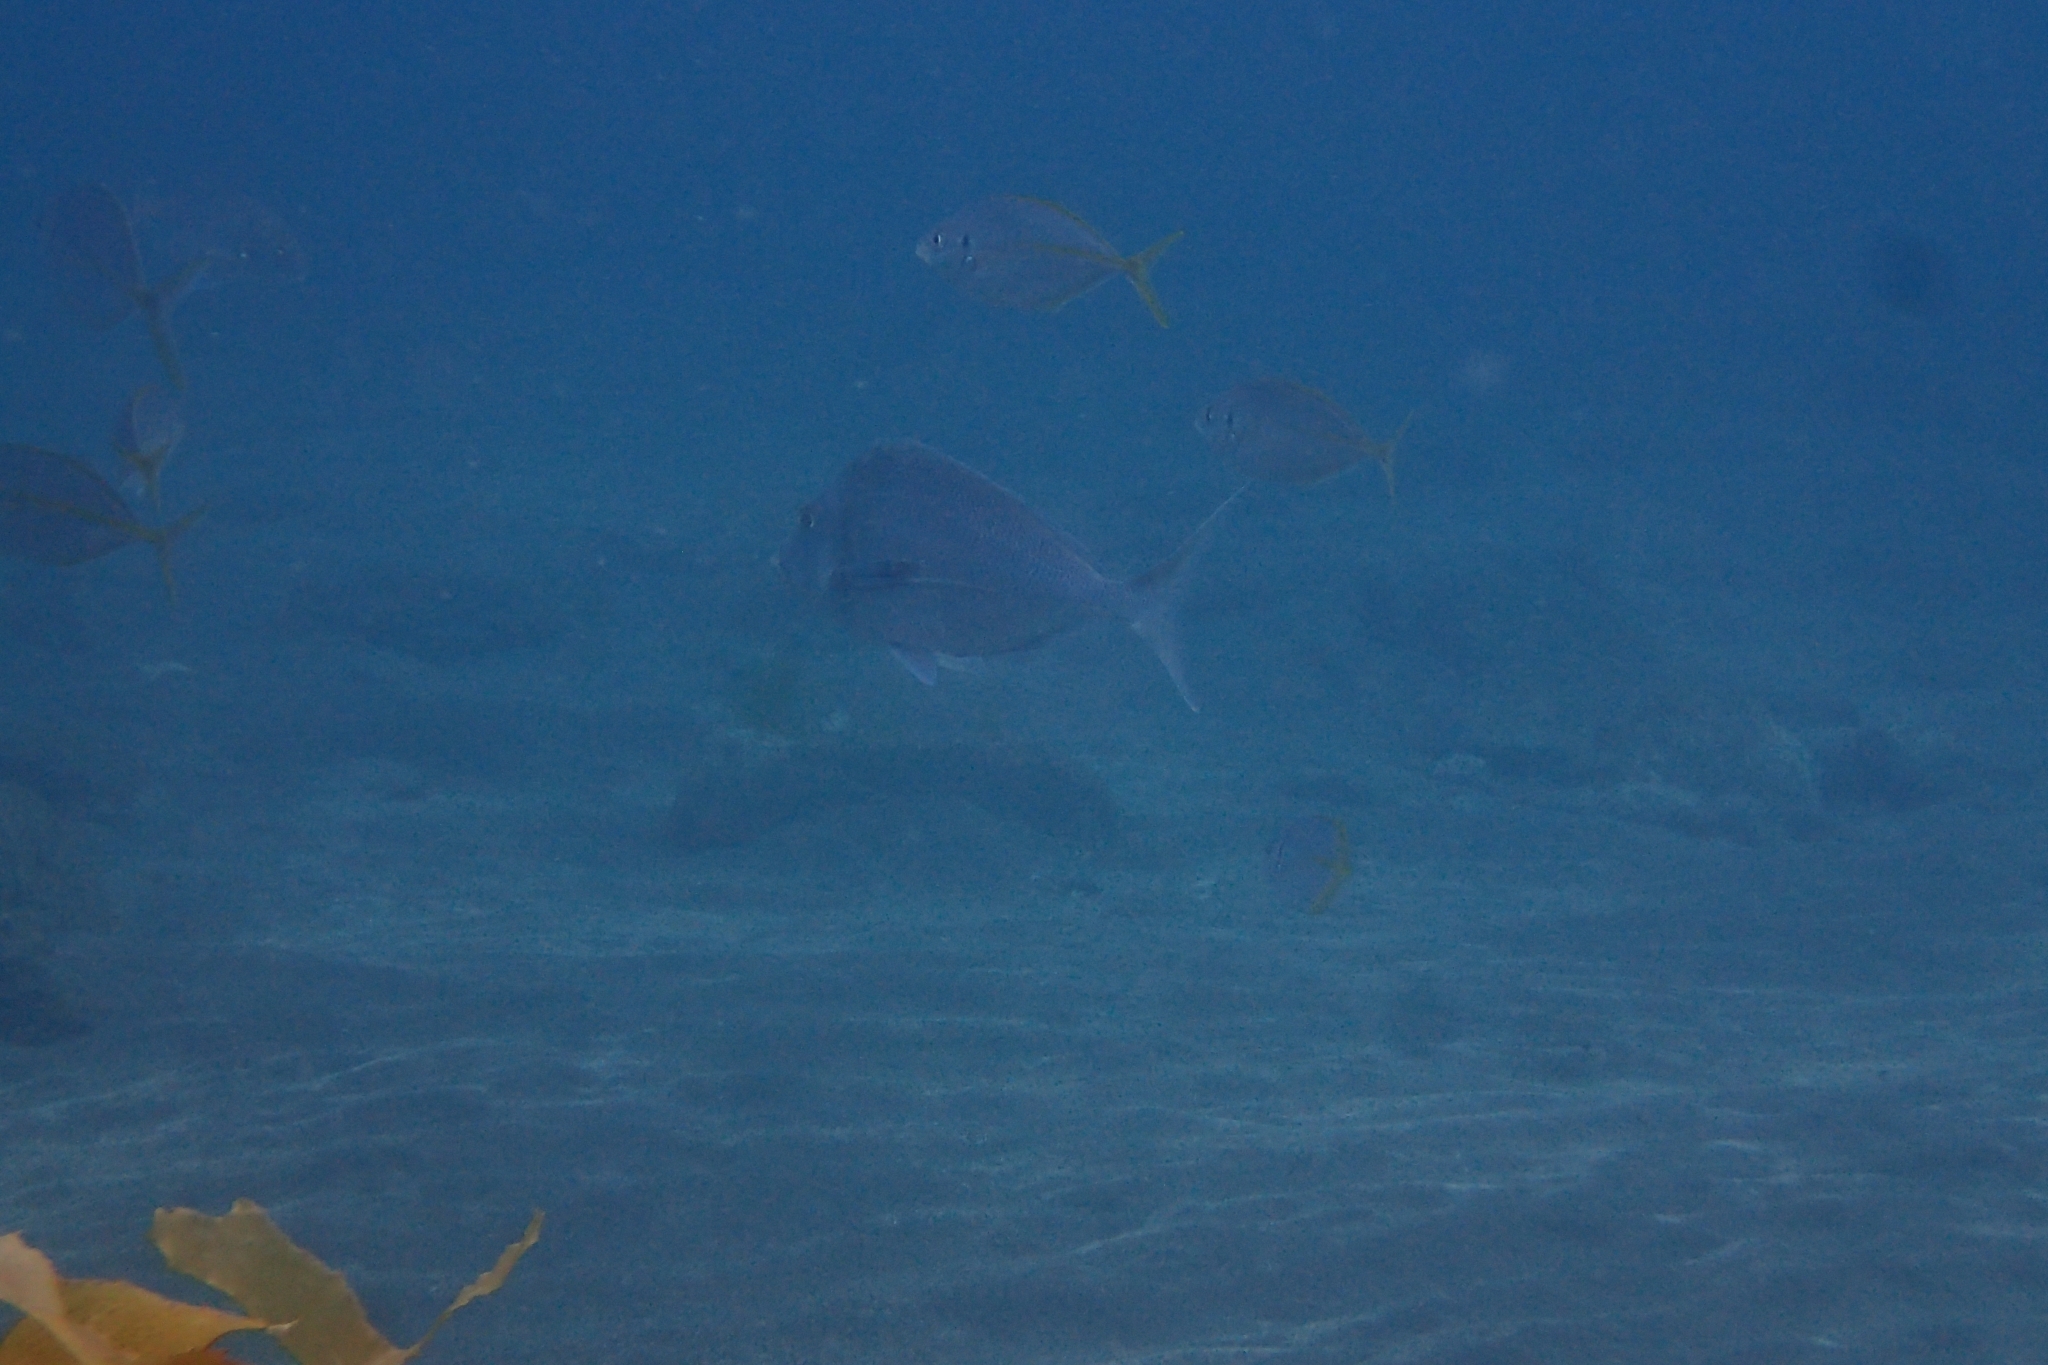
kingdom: Animalia
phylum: Chordata
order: Perciformes
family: Cheilodactylidae
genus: Nemadactylus
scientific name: Nemadactylus douglasii
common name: Porae
